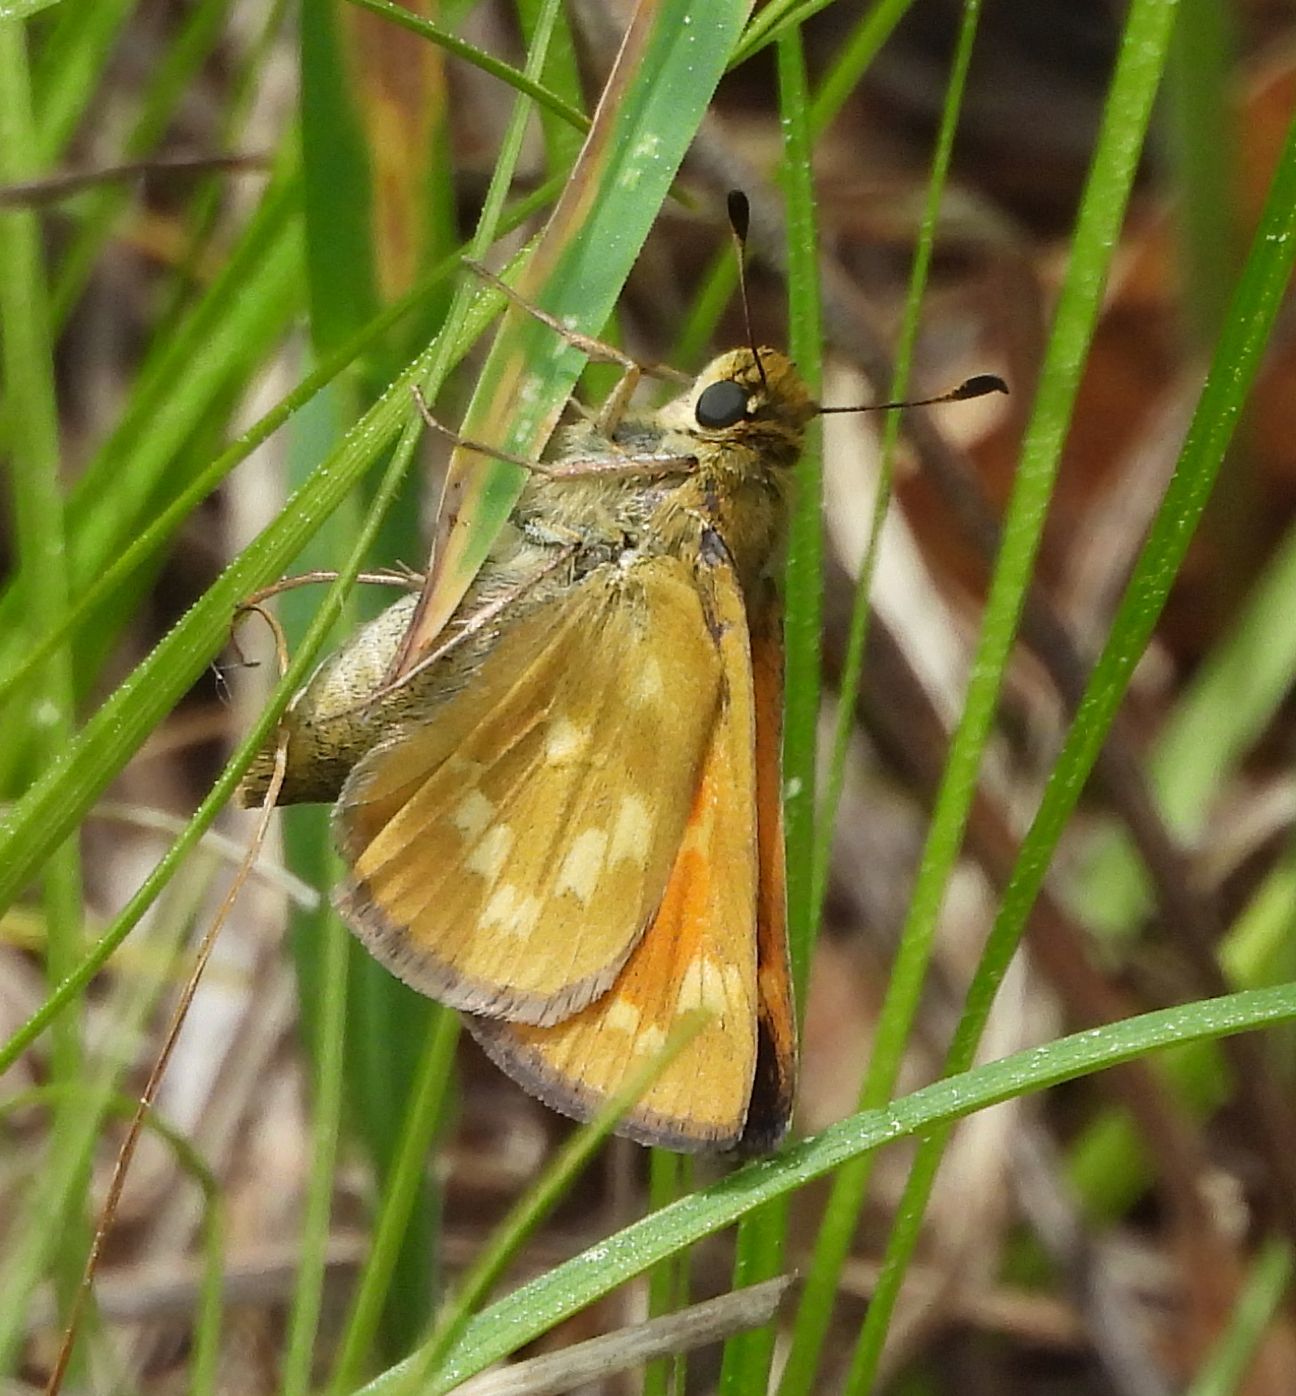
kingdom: Animalia
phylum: Arthropoda
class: Insecta
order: Lepidoptera
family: Hesperiidae
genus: Hesperia
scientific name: Hesperia sassacus
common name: Indian skipper
